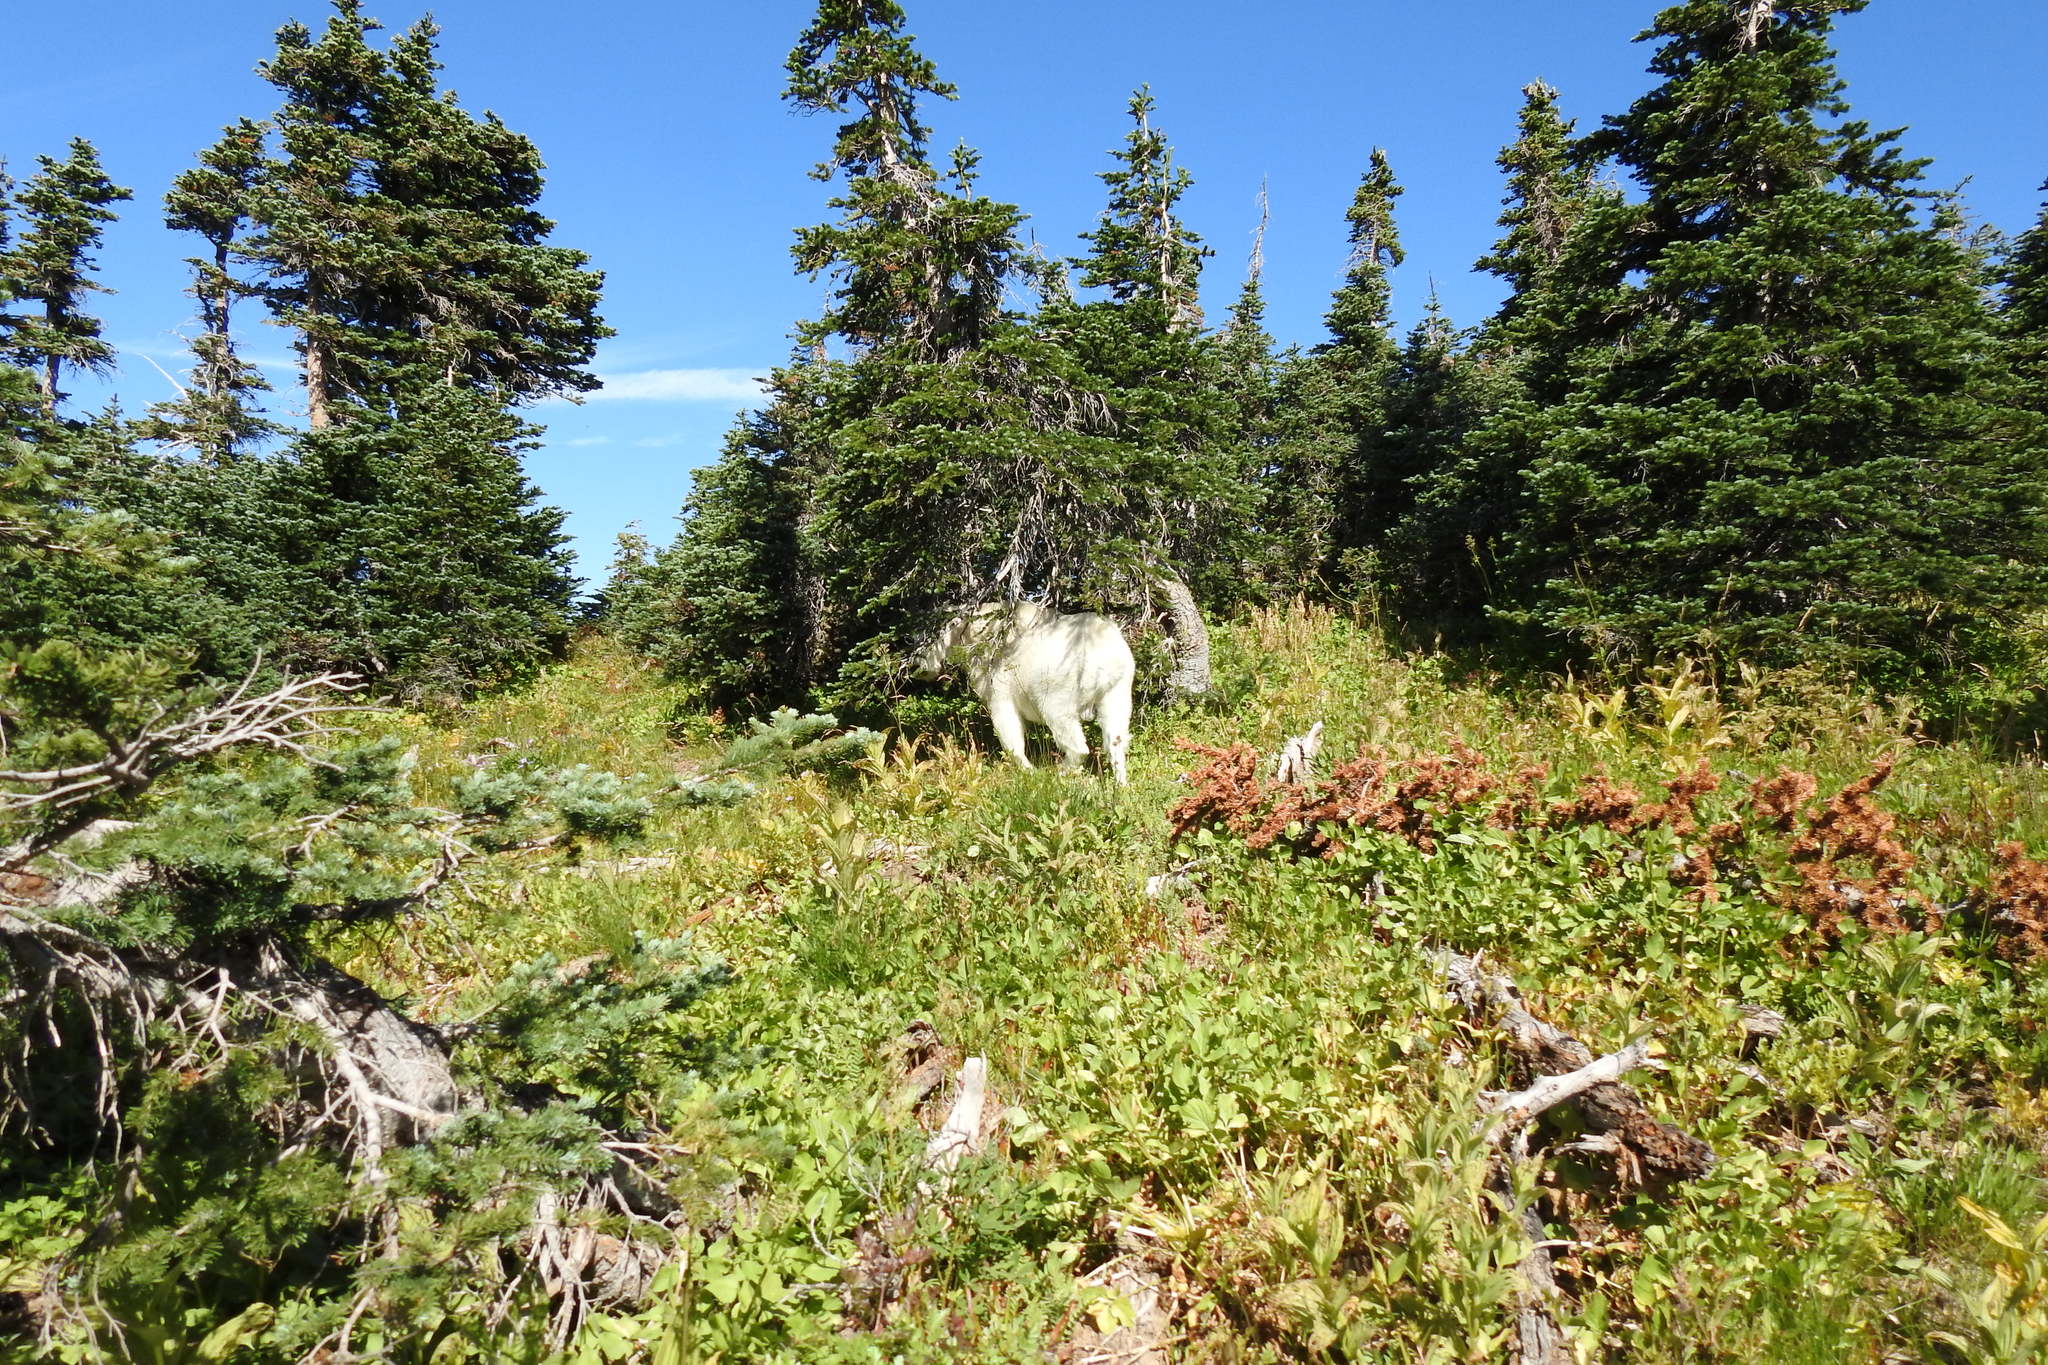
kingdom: Animalia
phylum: Chordata
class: Mammalia
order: Artiodactyla
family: Bovidae
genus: Oreamnos
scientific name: Oreamnos americanus
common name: Mountain goat
